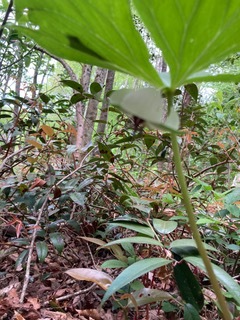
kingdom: Plantae
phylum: Tracheophyta
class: Liliopsida
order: Liliales
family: Melanthiaceae
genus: Trillium
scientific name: Trillium rugelii
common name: Ill-scented trillium
